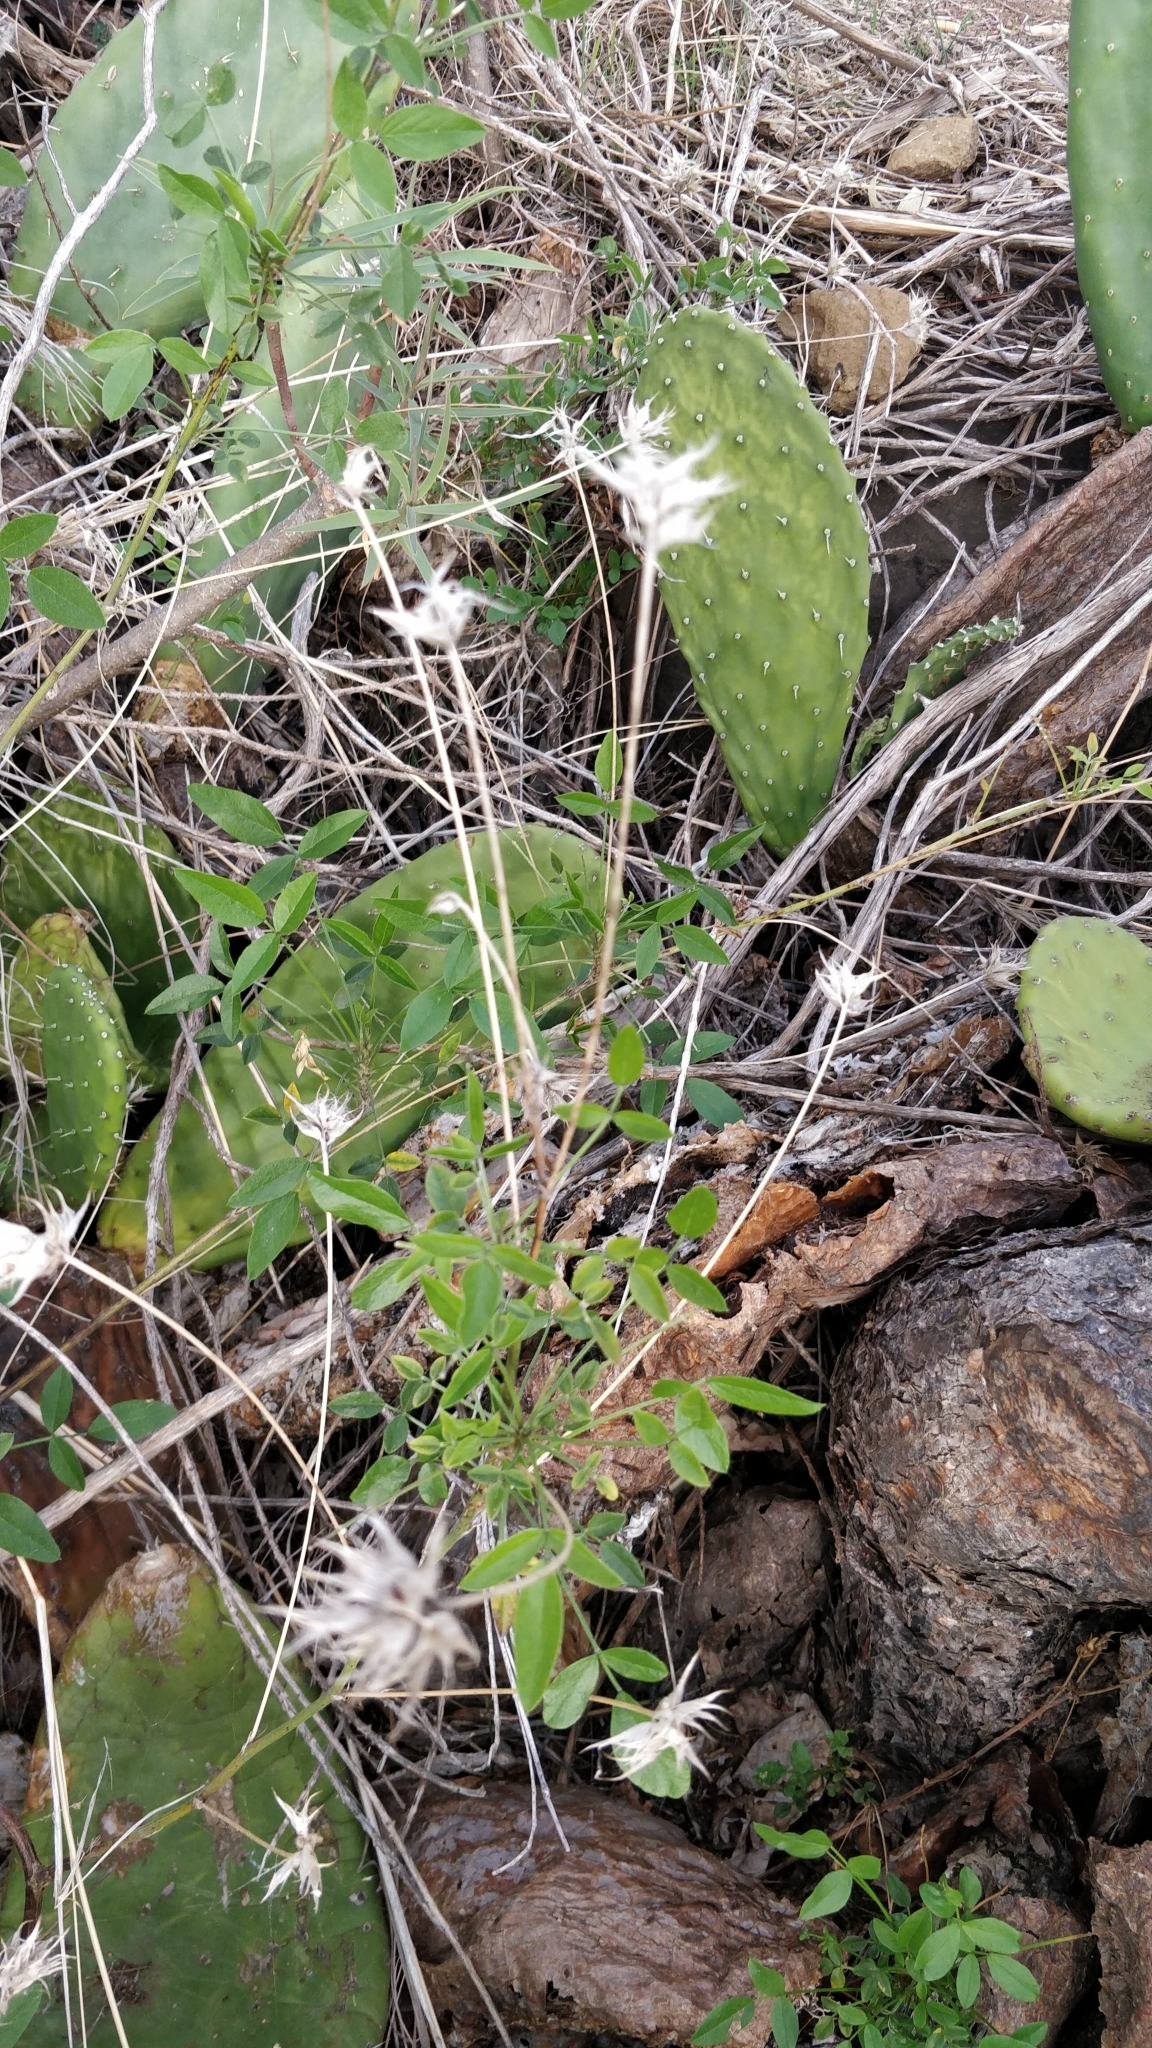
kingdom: Plantae
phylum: Tracheophyta
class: Magnoliopsida
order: Fabales
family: Fabaceae
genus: Bituminaria
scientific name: Bituminaria bituminosa
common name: Arabian pea
